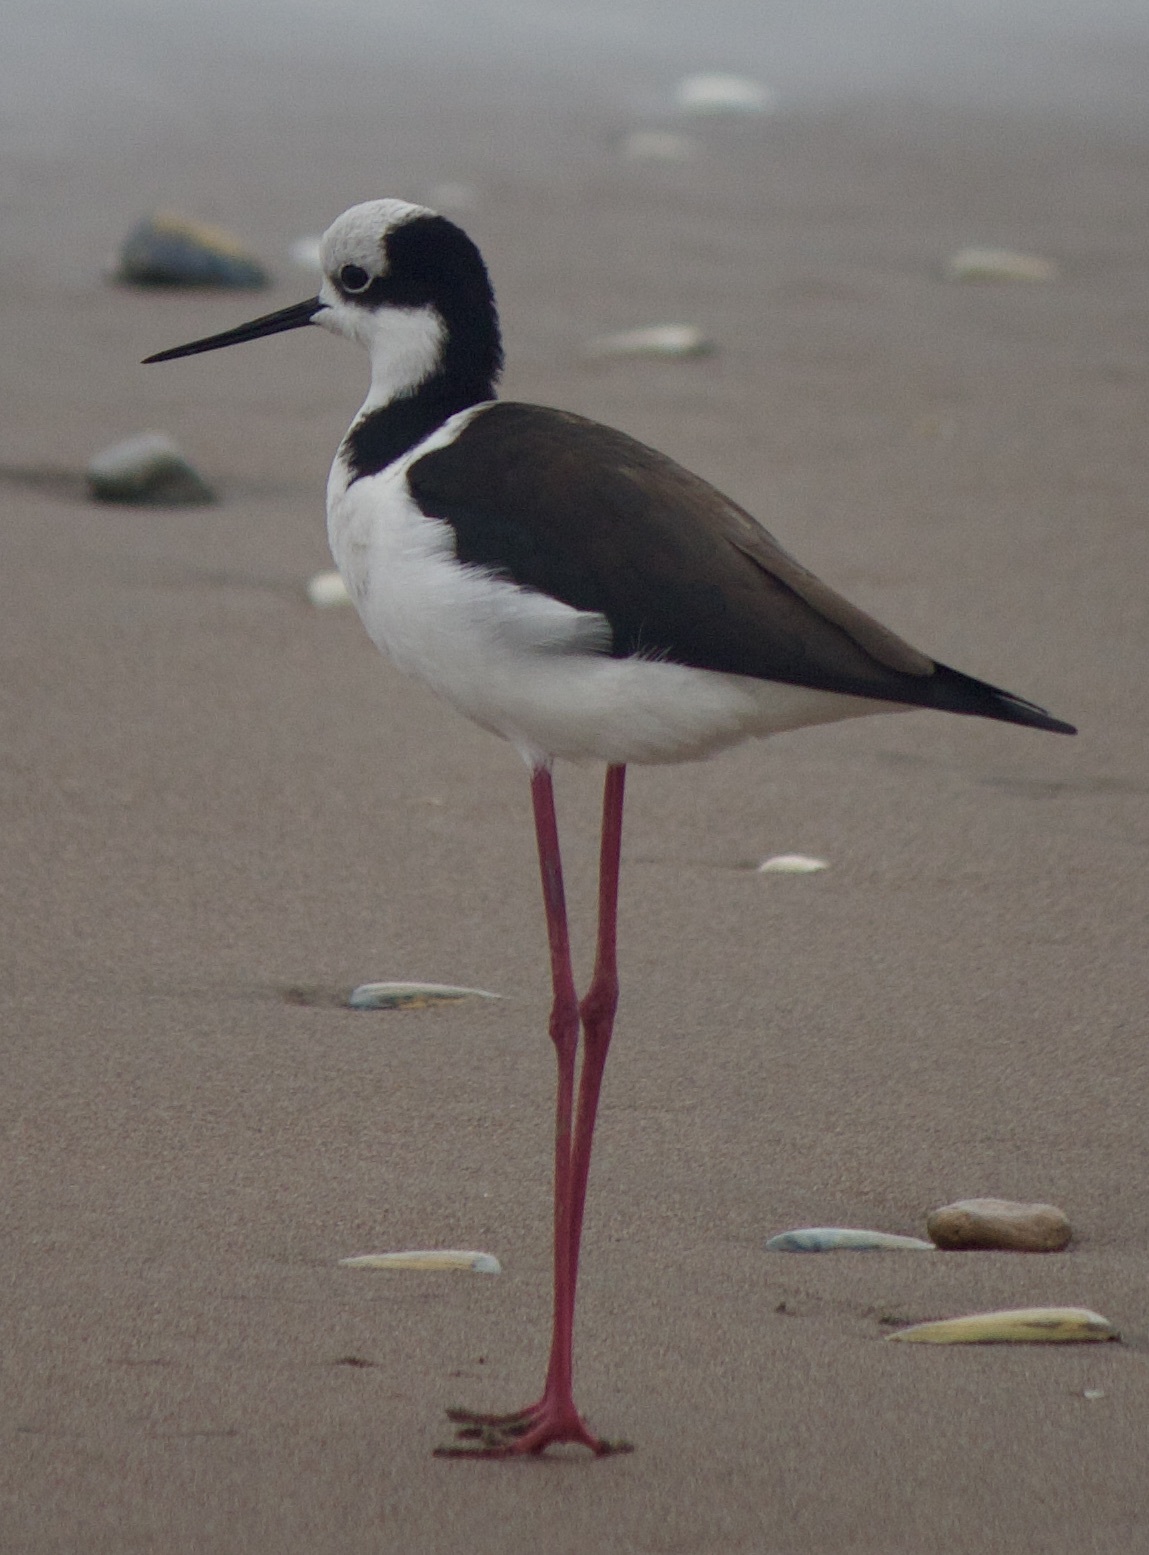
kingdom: Animalia
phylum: Chordata
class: Aves
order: Charadriiformes
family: Recurvirostridae
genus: Himantopus
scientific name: Himantopus mexicanus
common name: Black-necked stilt
